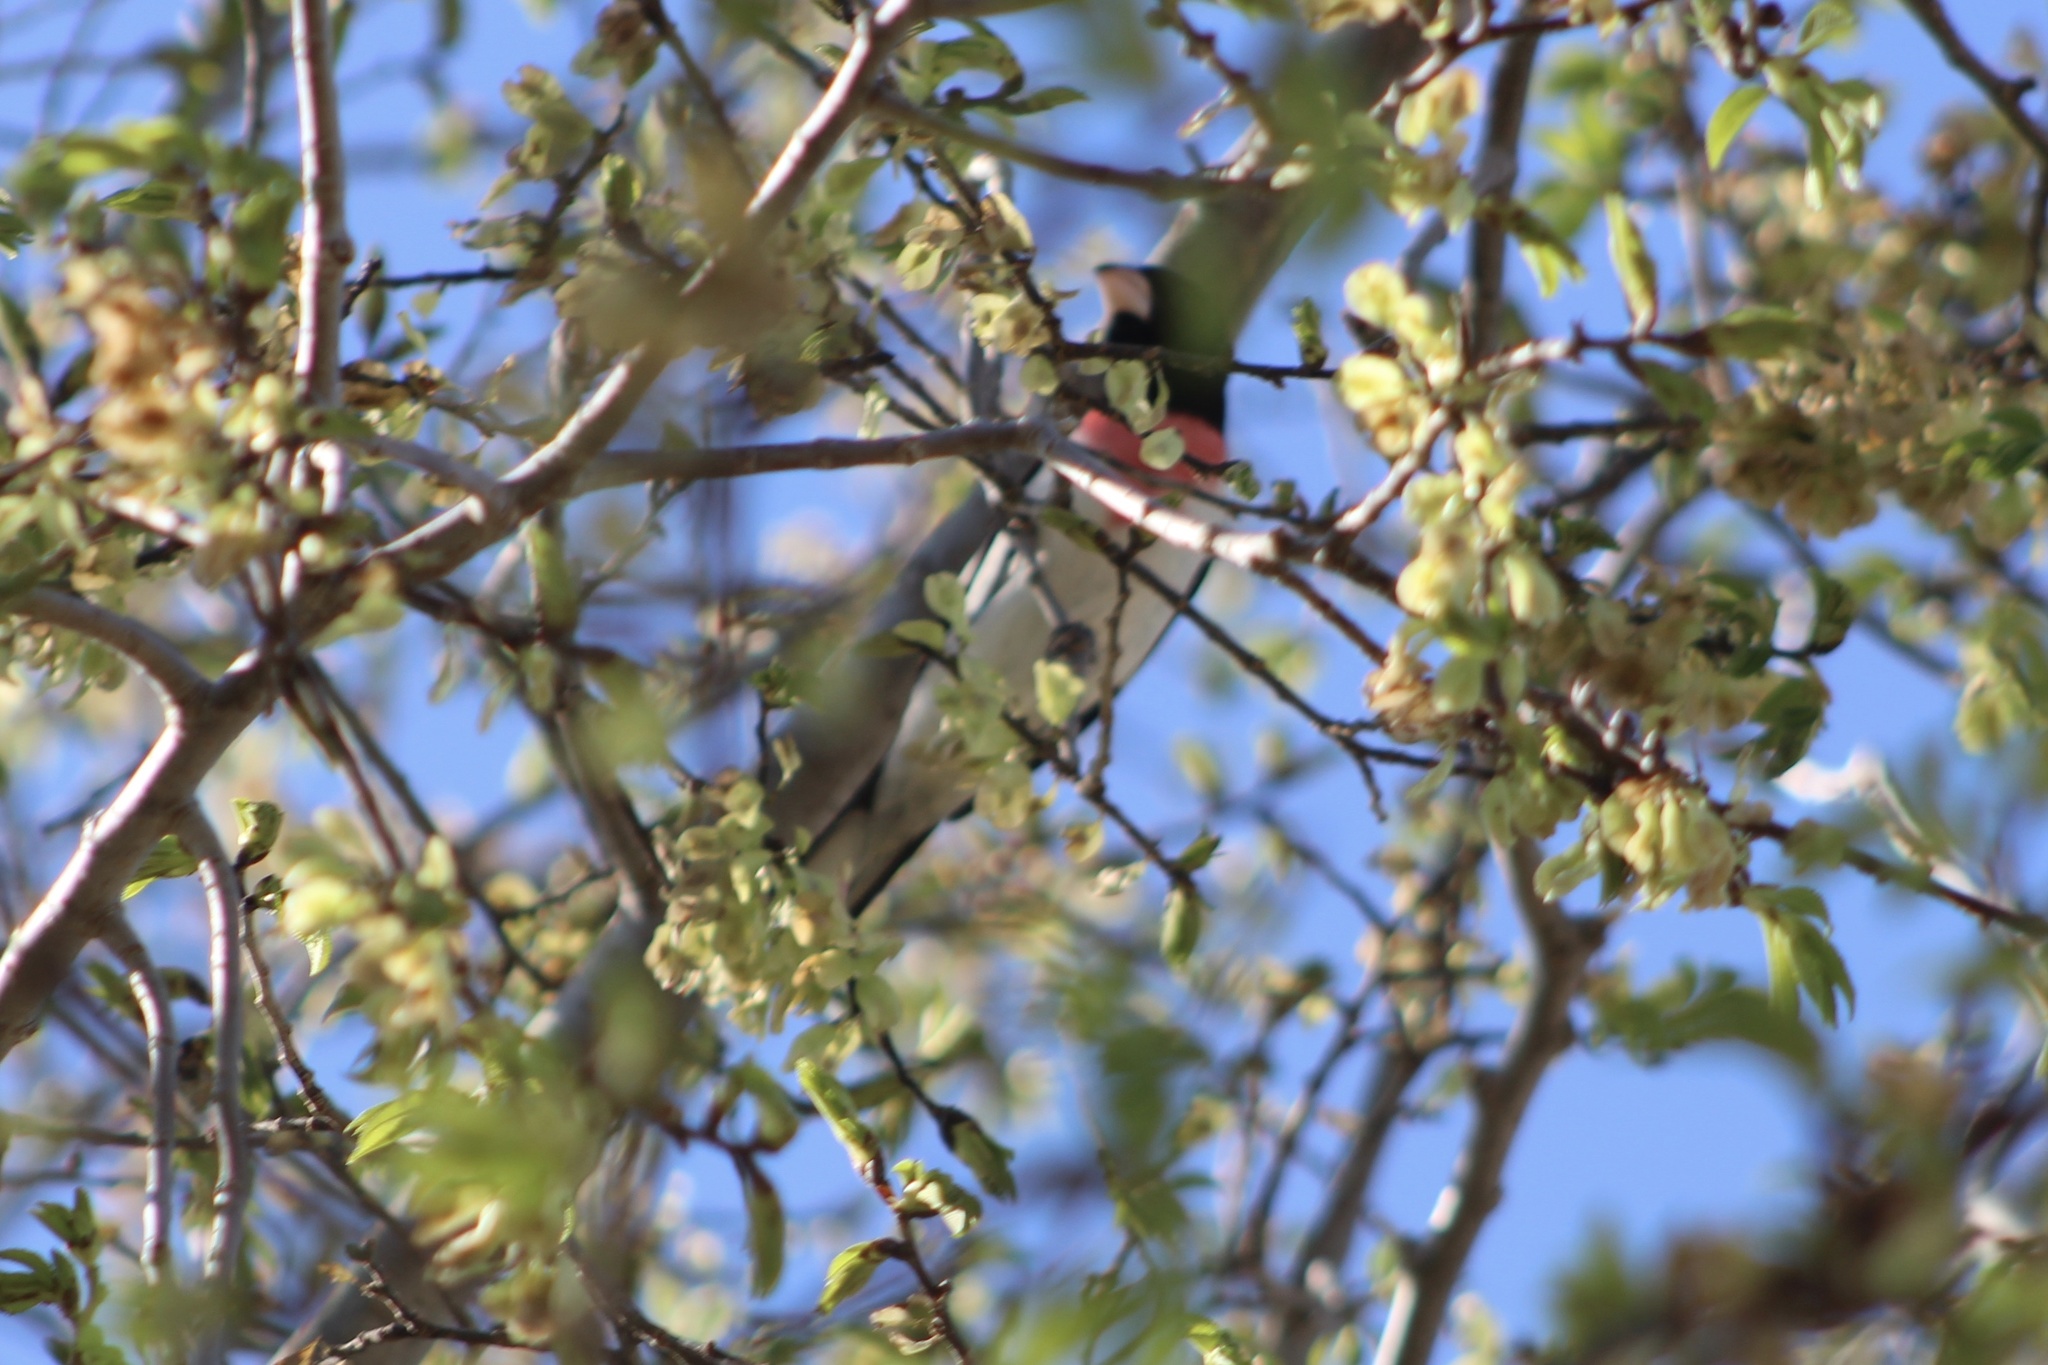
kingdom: Animalia
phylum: Chordata
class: Aves
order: Passeriformes
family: Cardinalidae
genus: Pheucticus
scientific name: Pheucticus ludovicianus
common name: Rose-breasted grosbeak
